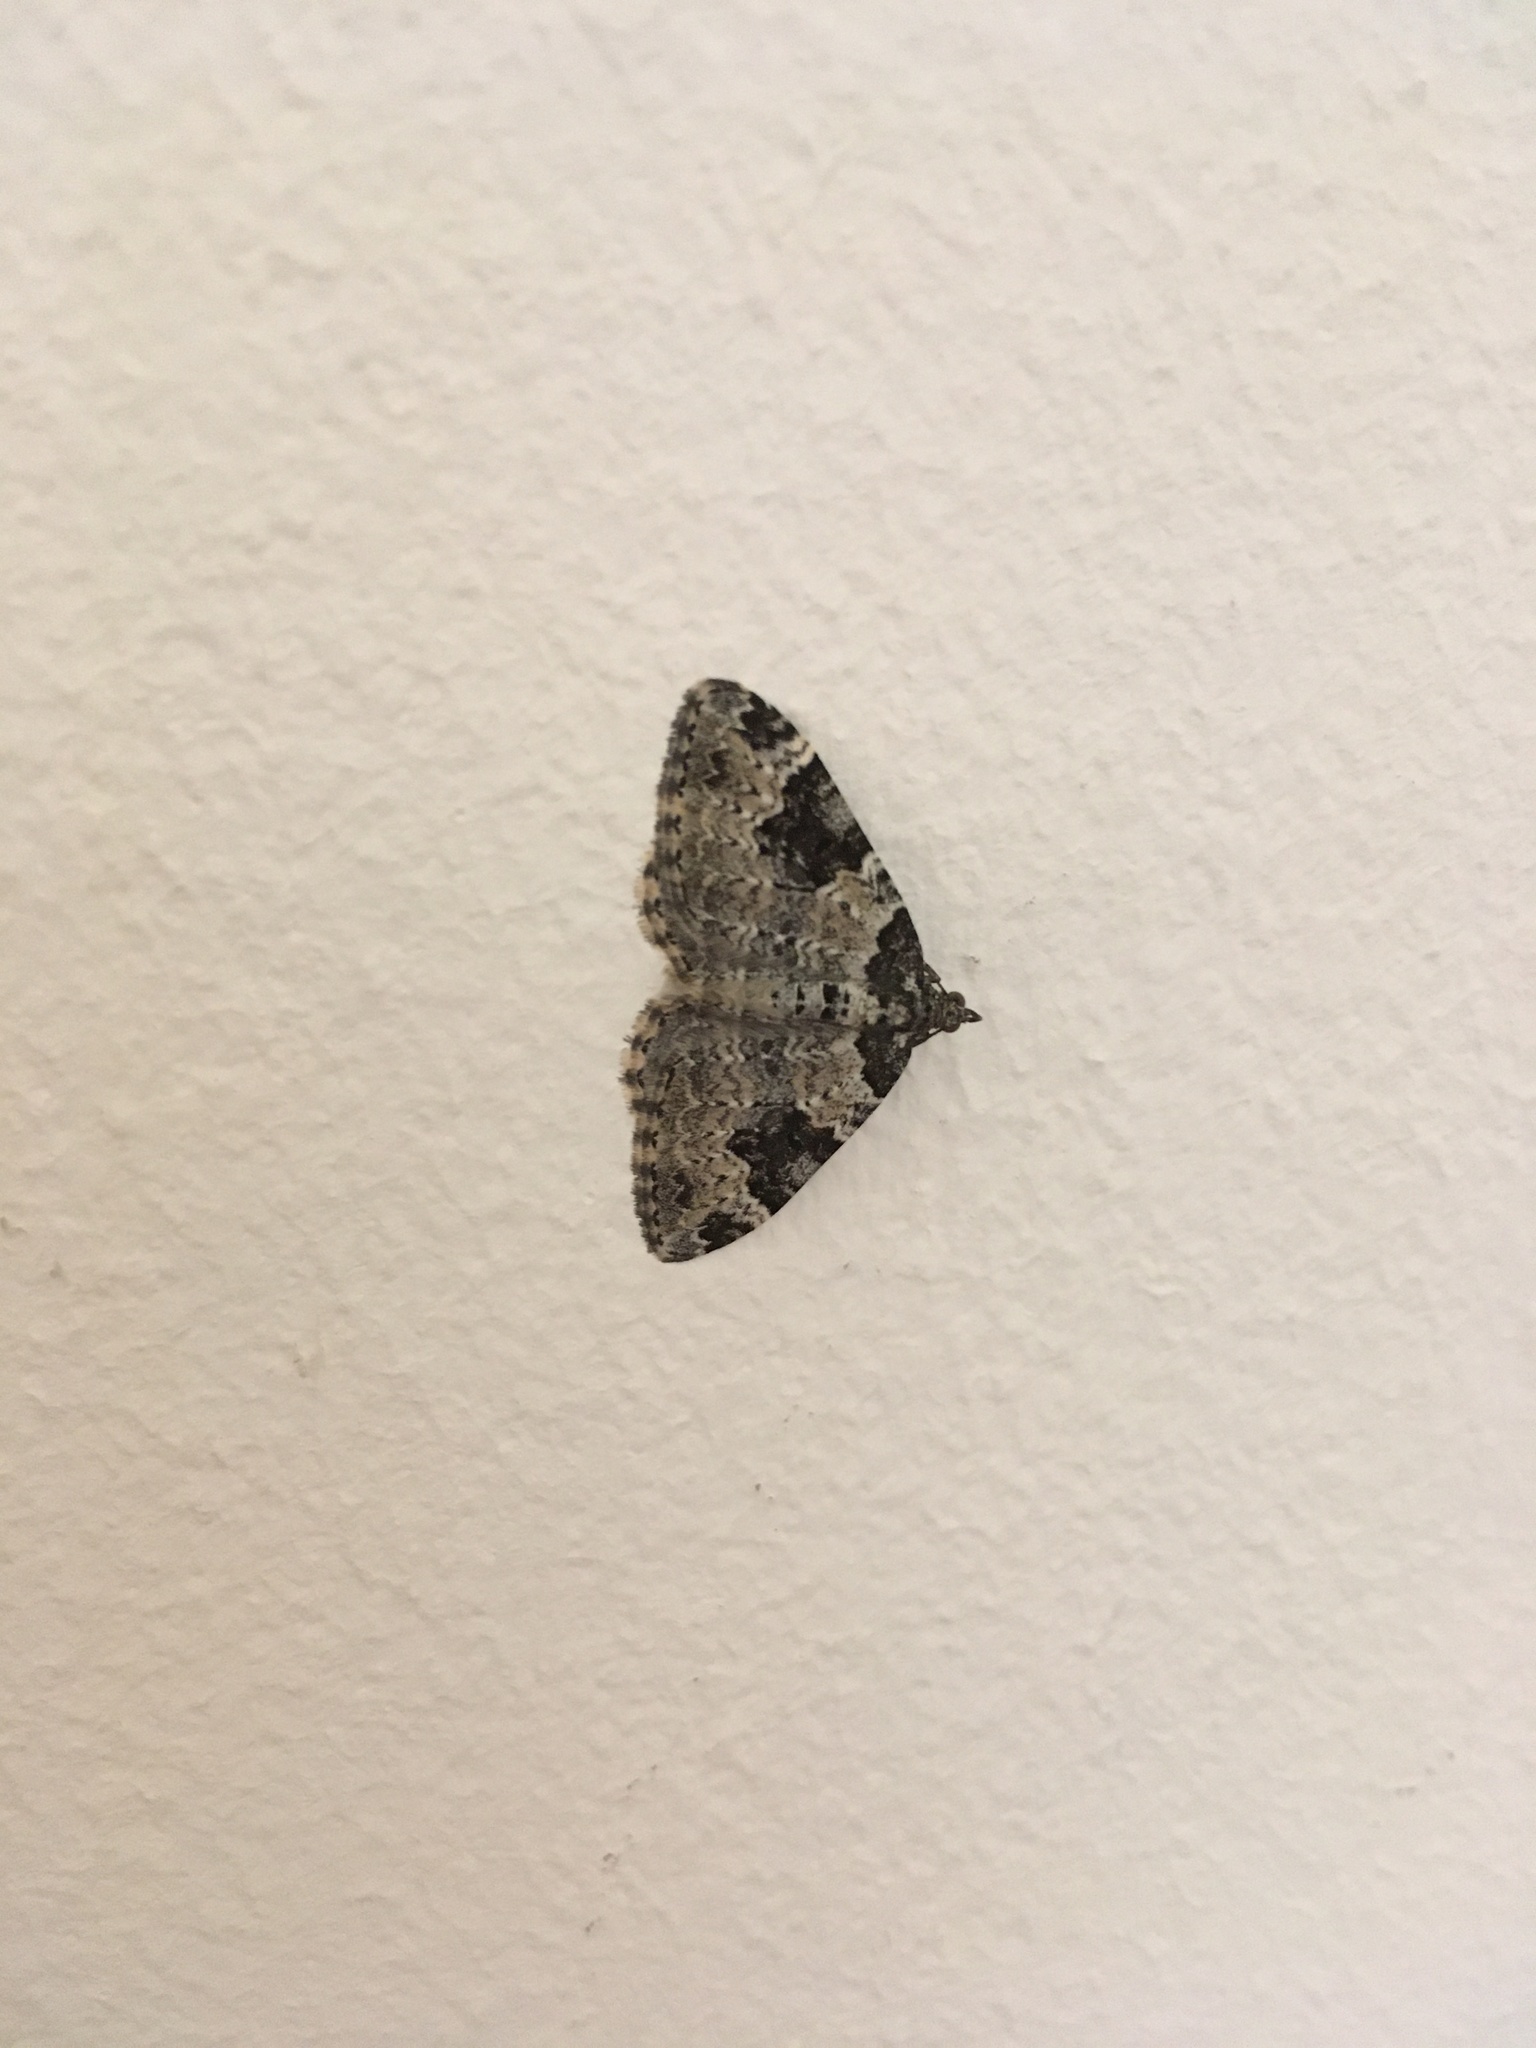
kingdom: Animalia
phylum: Arthropoda
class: Insecta
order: Lepidoptera
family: Geometridae
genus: Xanthorhoe
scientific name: Xanthorhoe fluctuata
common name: Garden carpet
